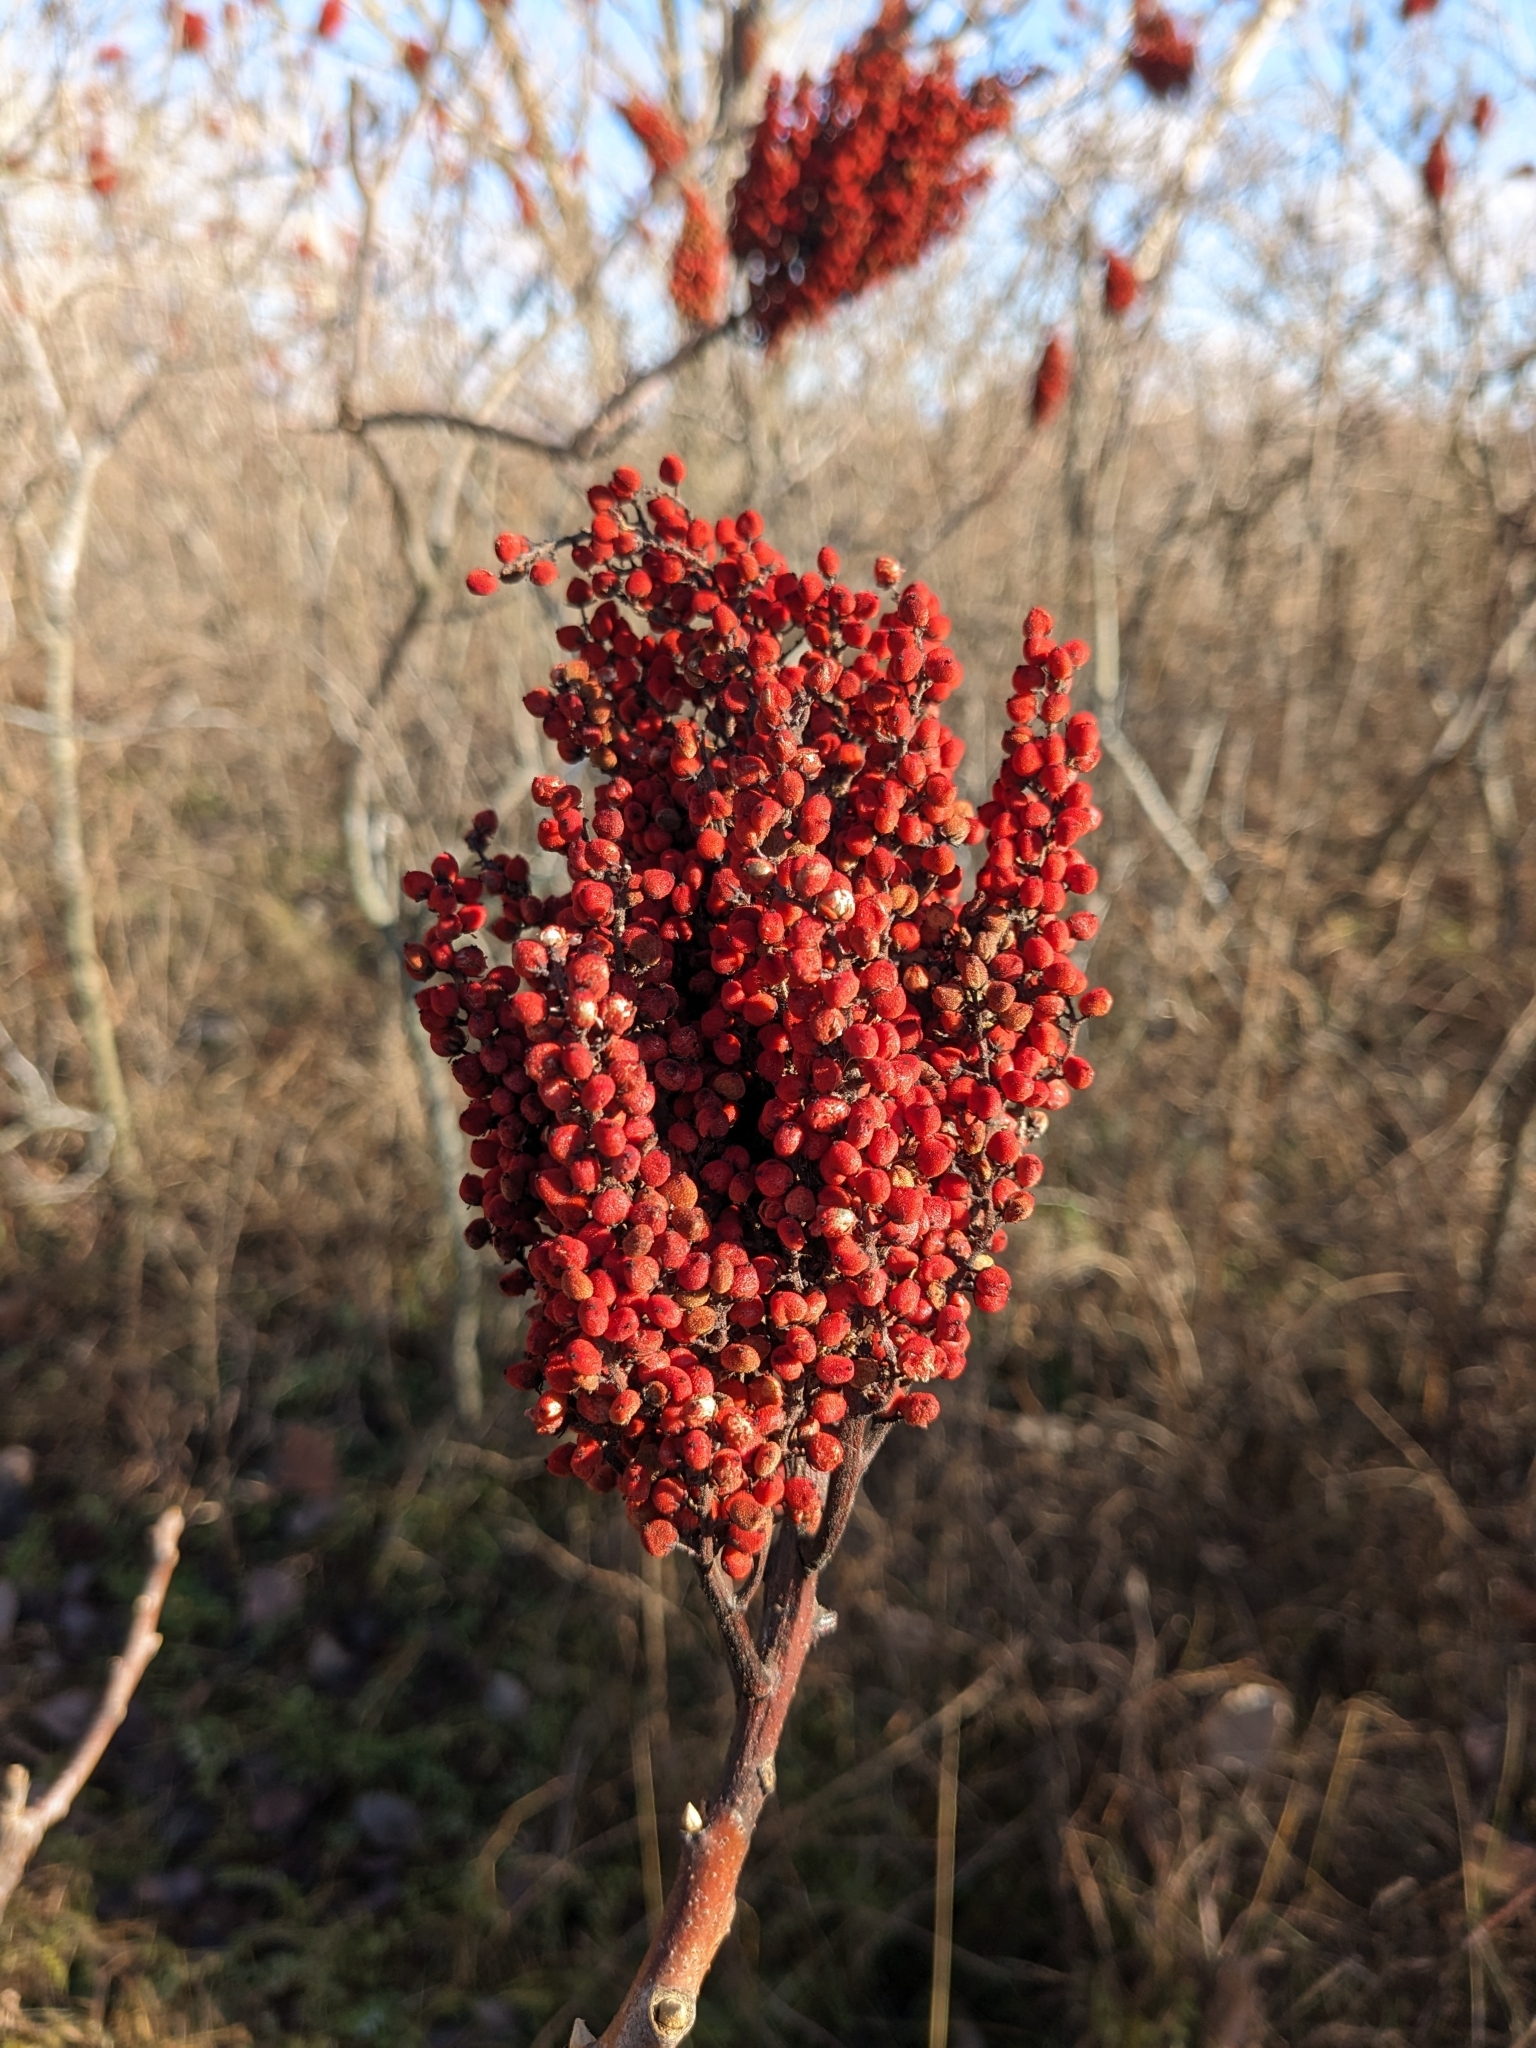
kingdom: Plantae
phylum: Tracheophyta
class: Magnoliopsida
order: Sapindales
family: Anacardiaceae
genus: Rhus
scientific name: Rhus glabra
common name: Scarlet sumac
